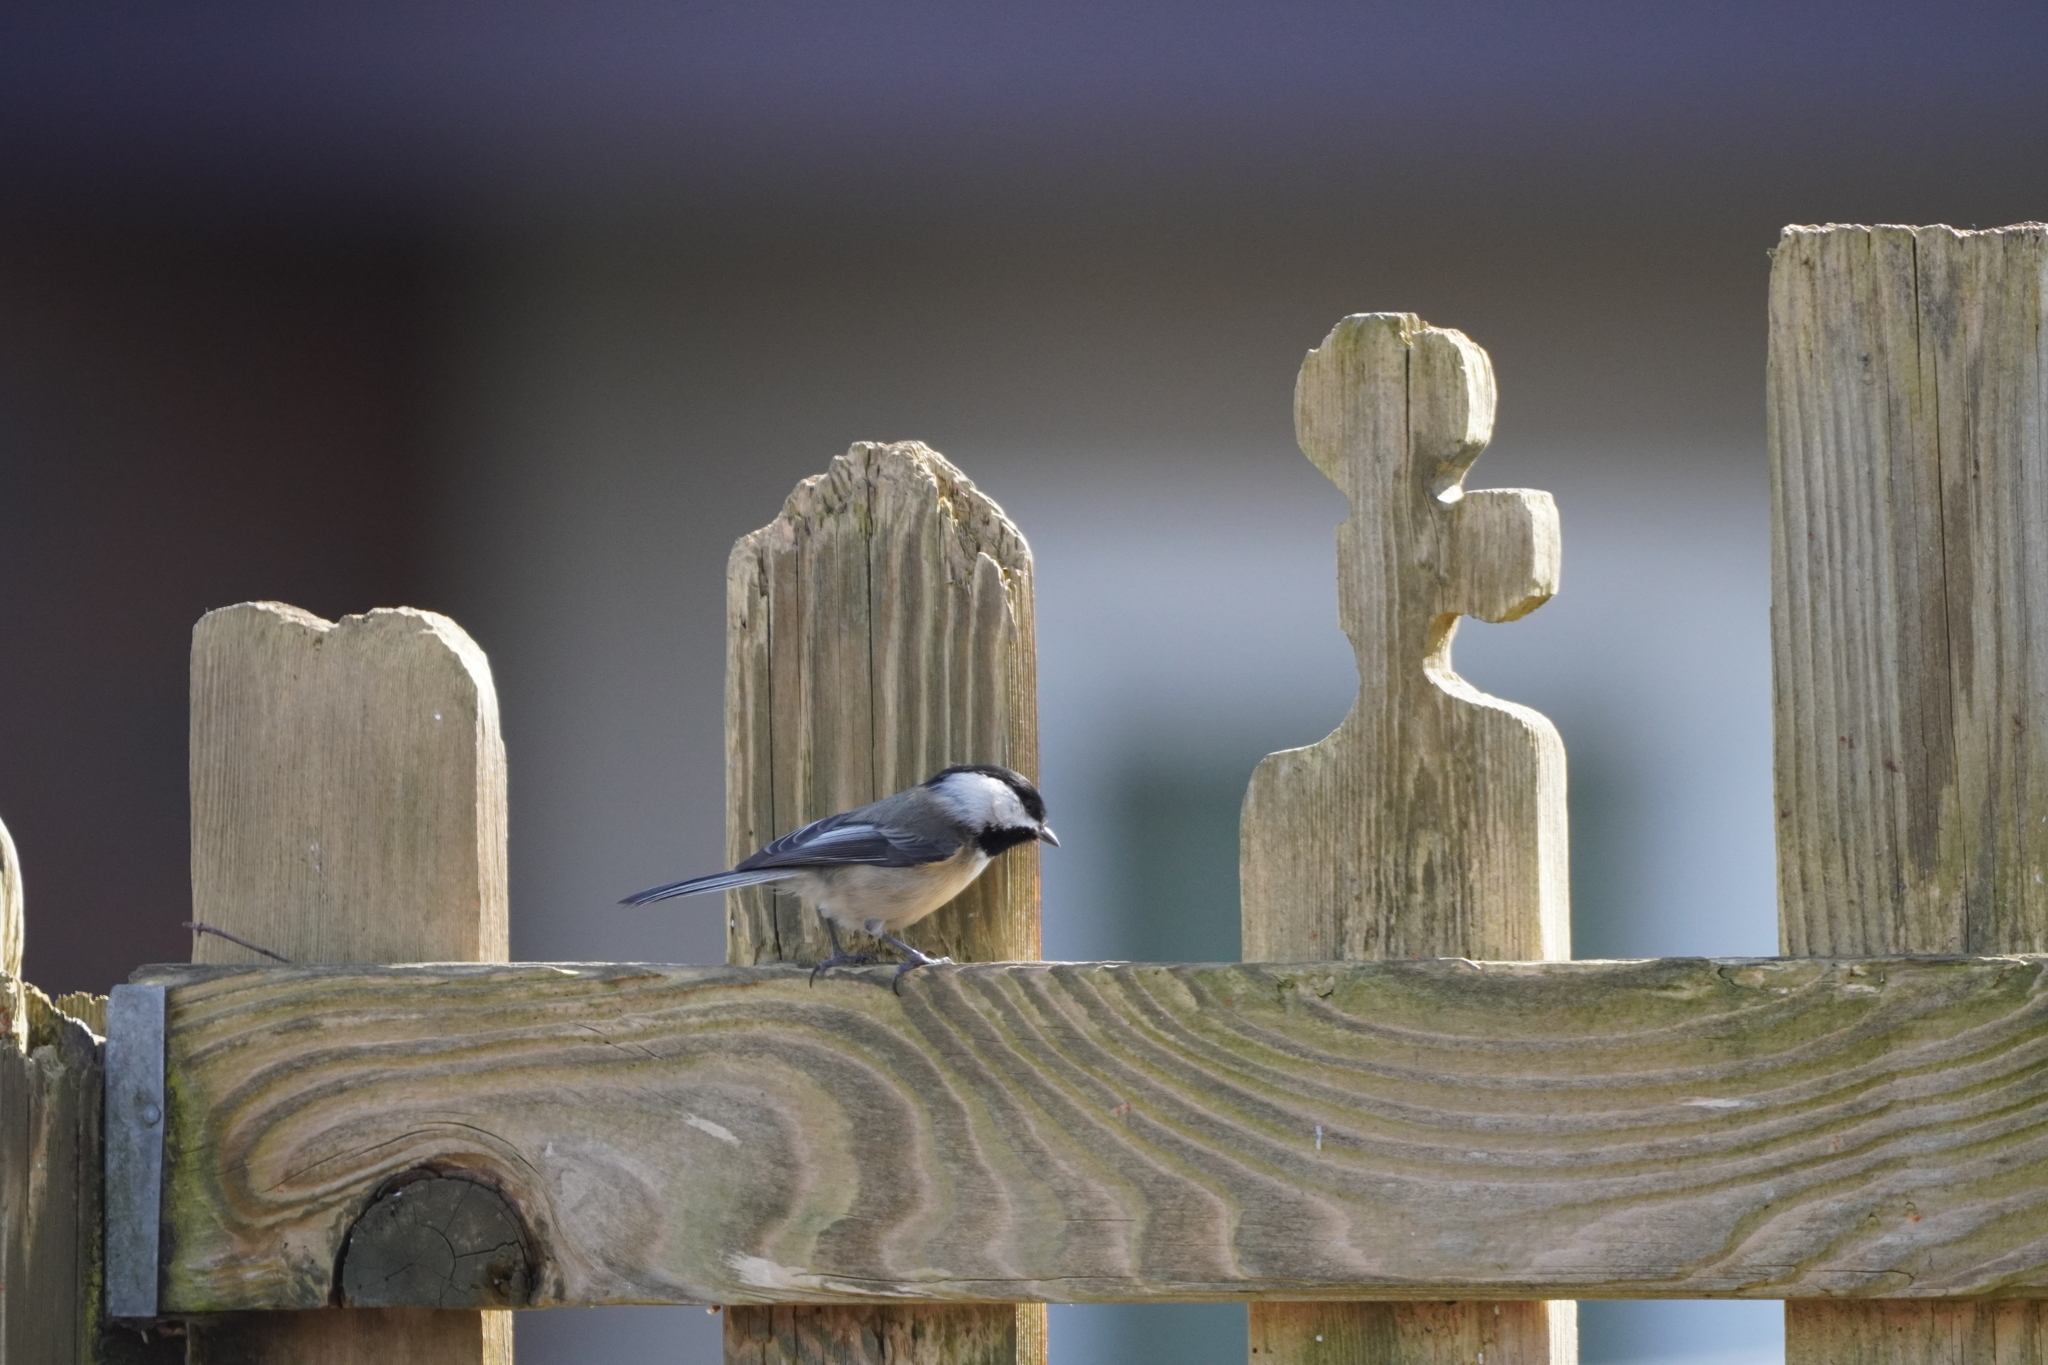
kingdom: Animalia
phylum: Chordata
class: Aves
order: Passeriformes
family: Paridae
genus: Poecile
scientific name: Poecile atricapillus
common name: Black-capped chickadee
